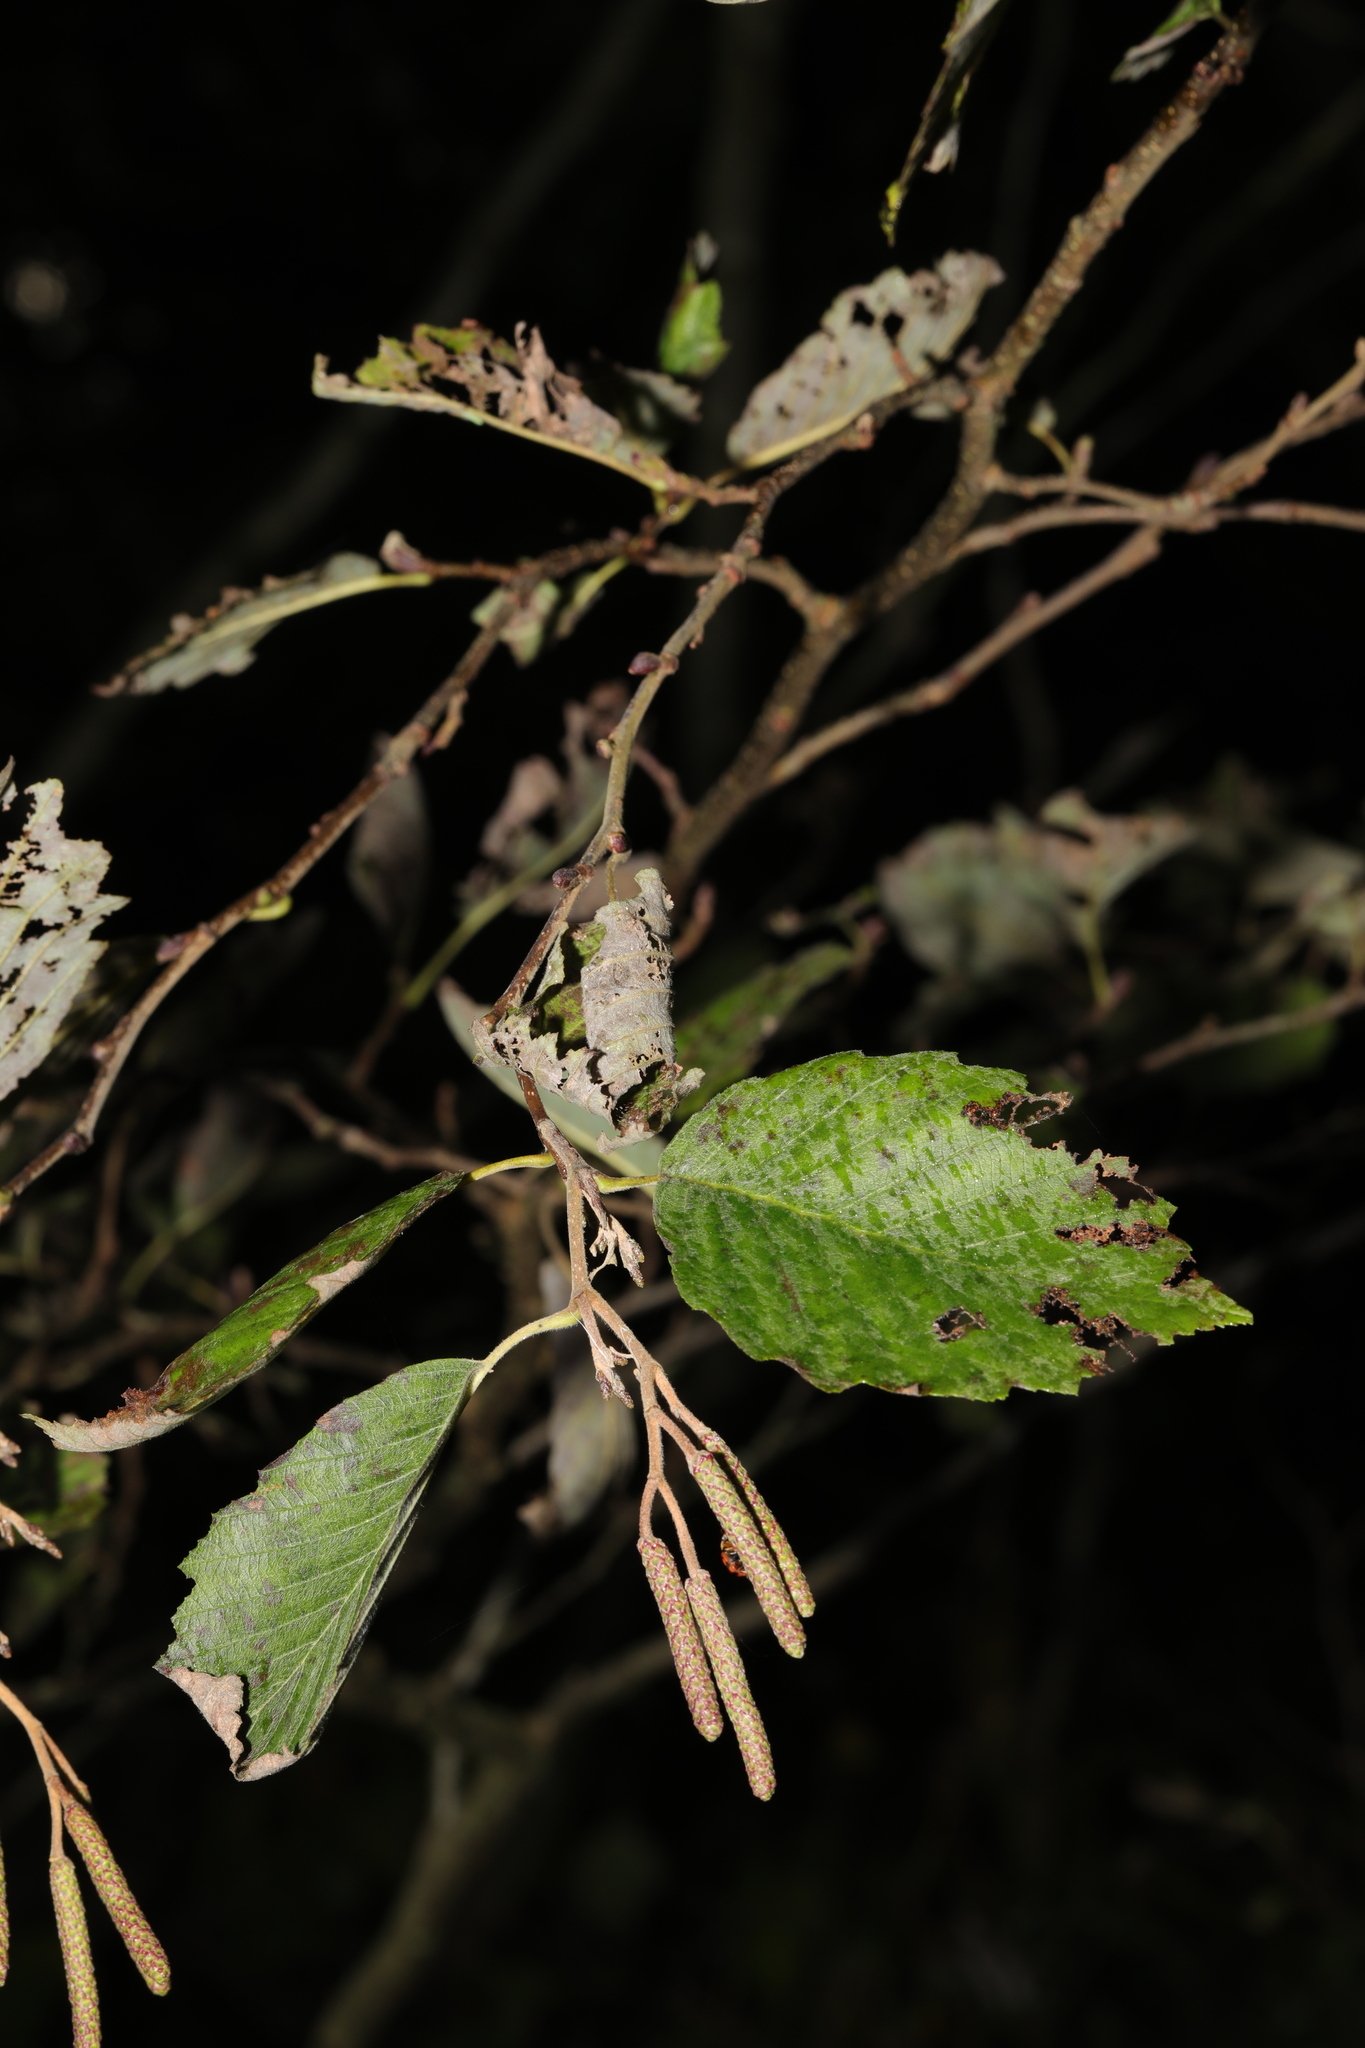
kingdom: Plantae
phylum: Tracheophyta
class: Magnoliopsida
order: Fagales
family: Betulaceae
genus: Alnus
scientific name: Alnus incana
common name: Grey alder
